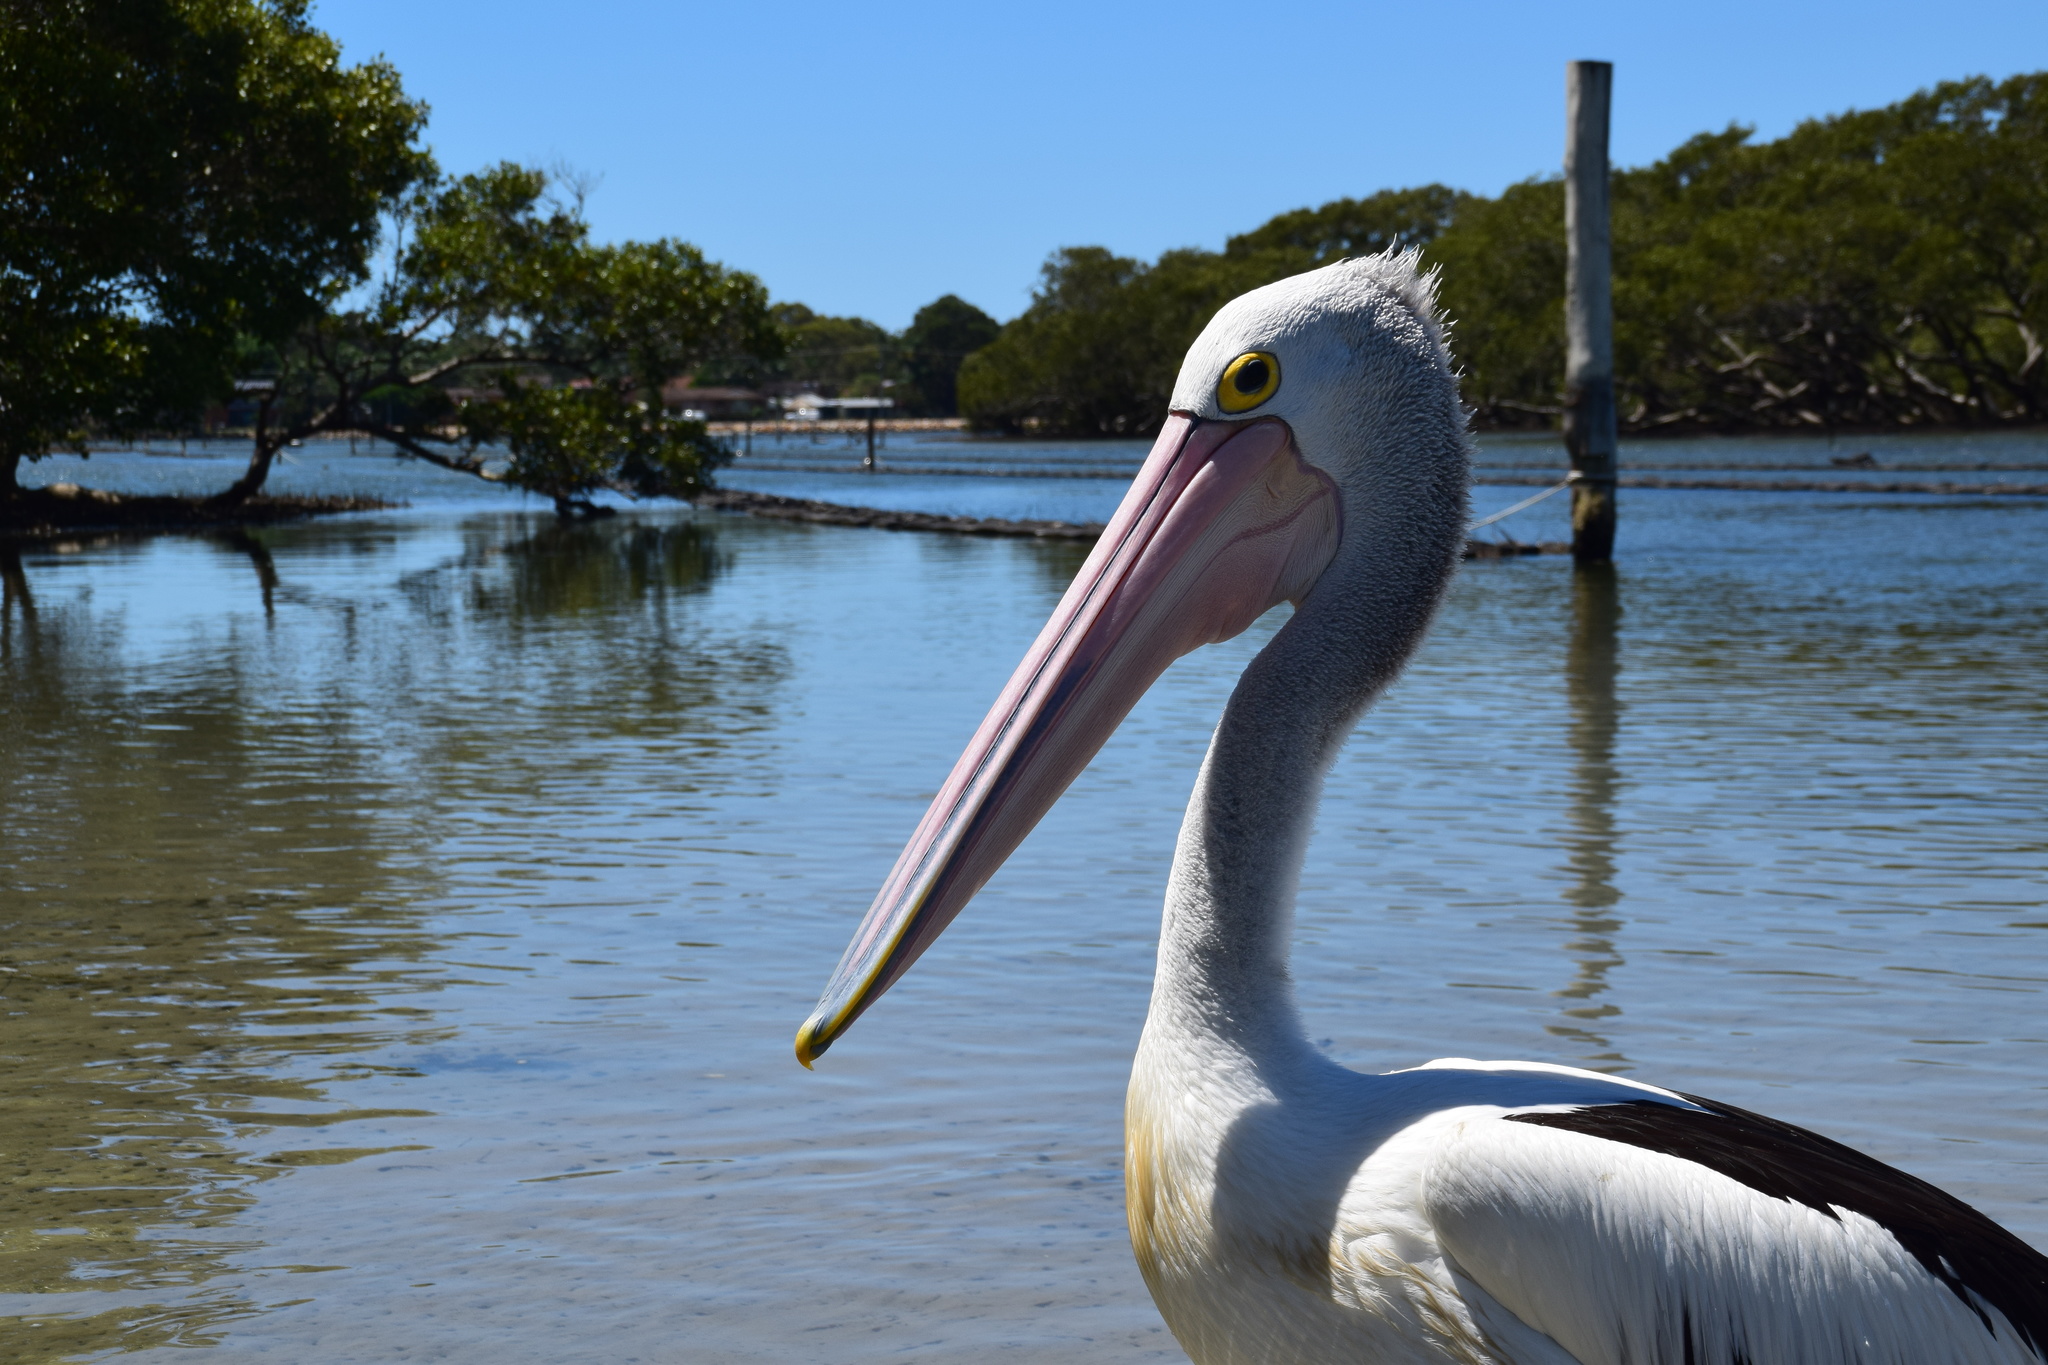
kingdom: Animalia
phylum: Chordata
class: Aves
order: Pelecaniformes
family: Pelecanidae
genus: Pelecanus
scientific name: Pelecanus conspicillatus
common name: Australian pelican
